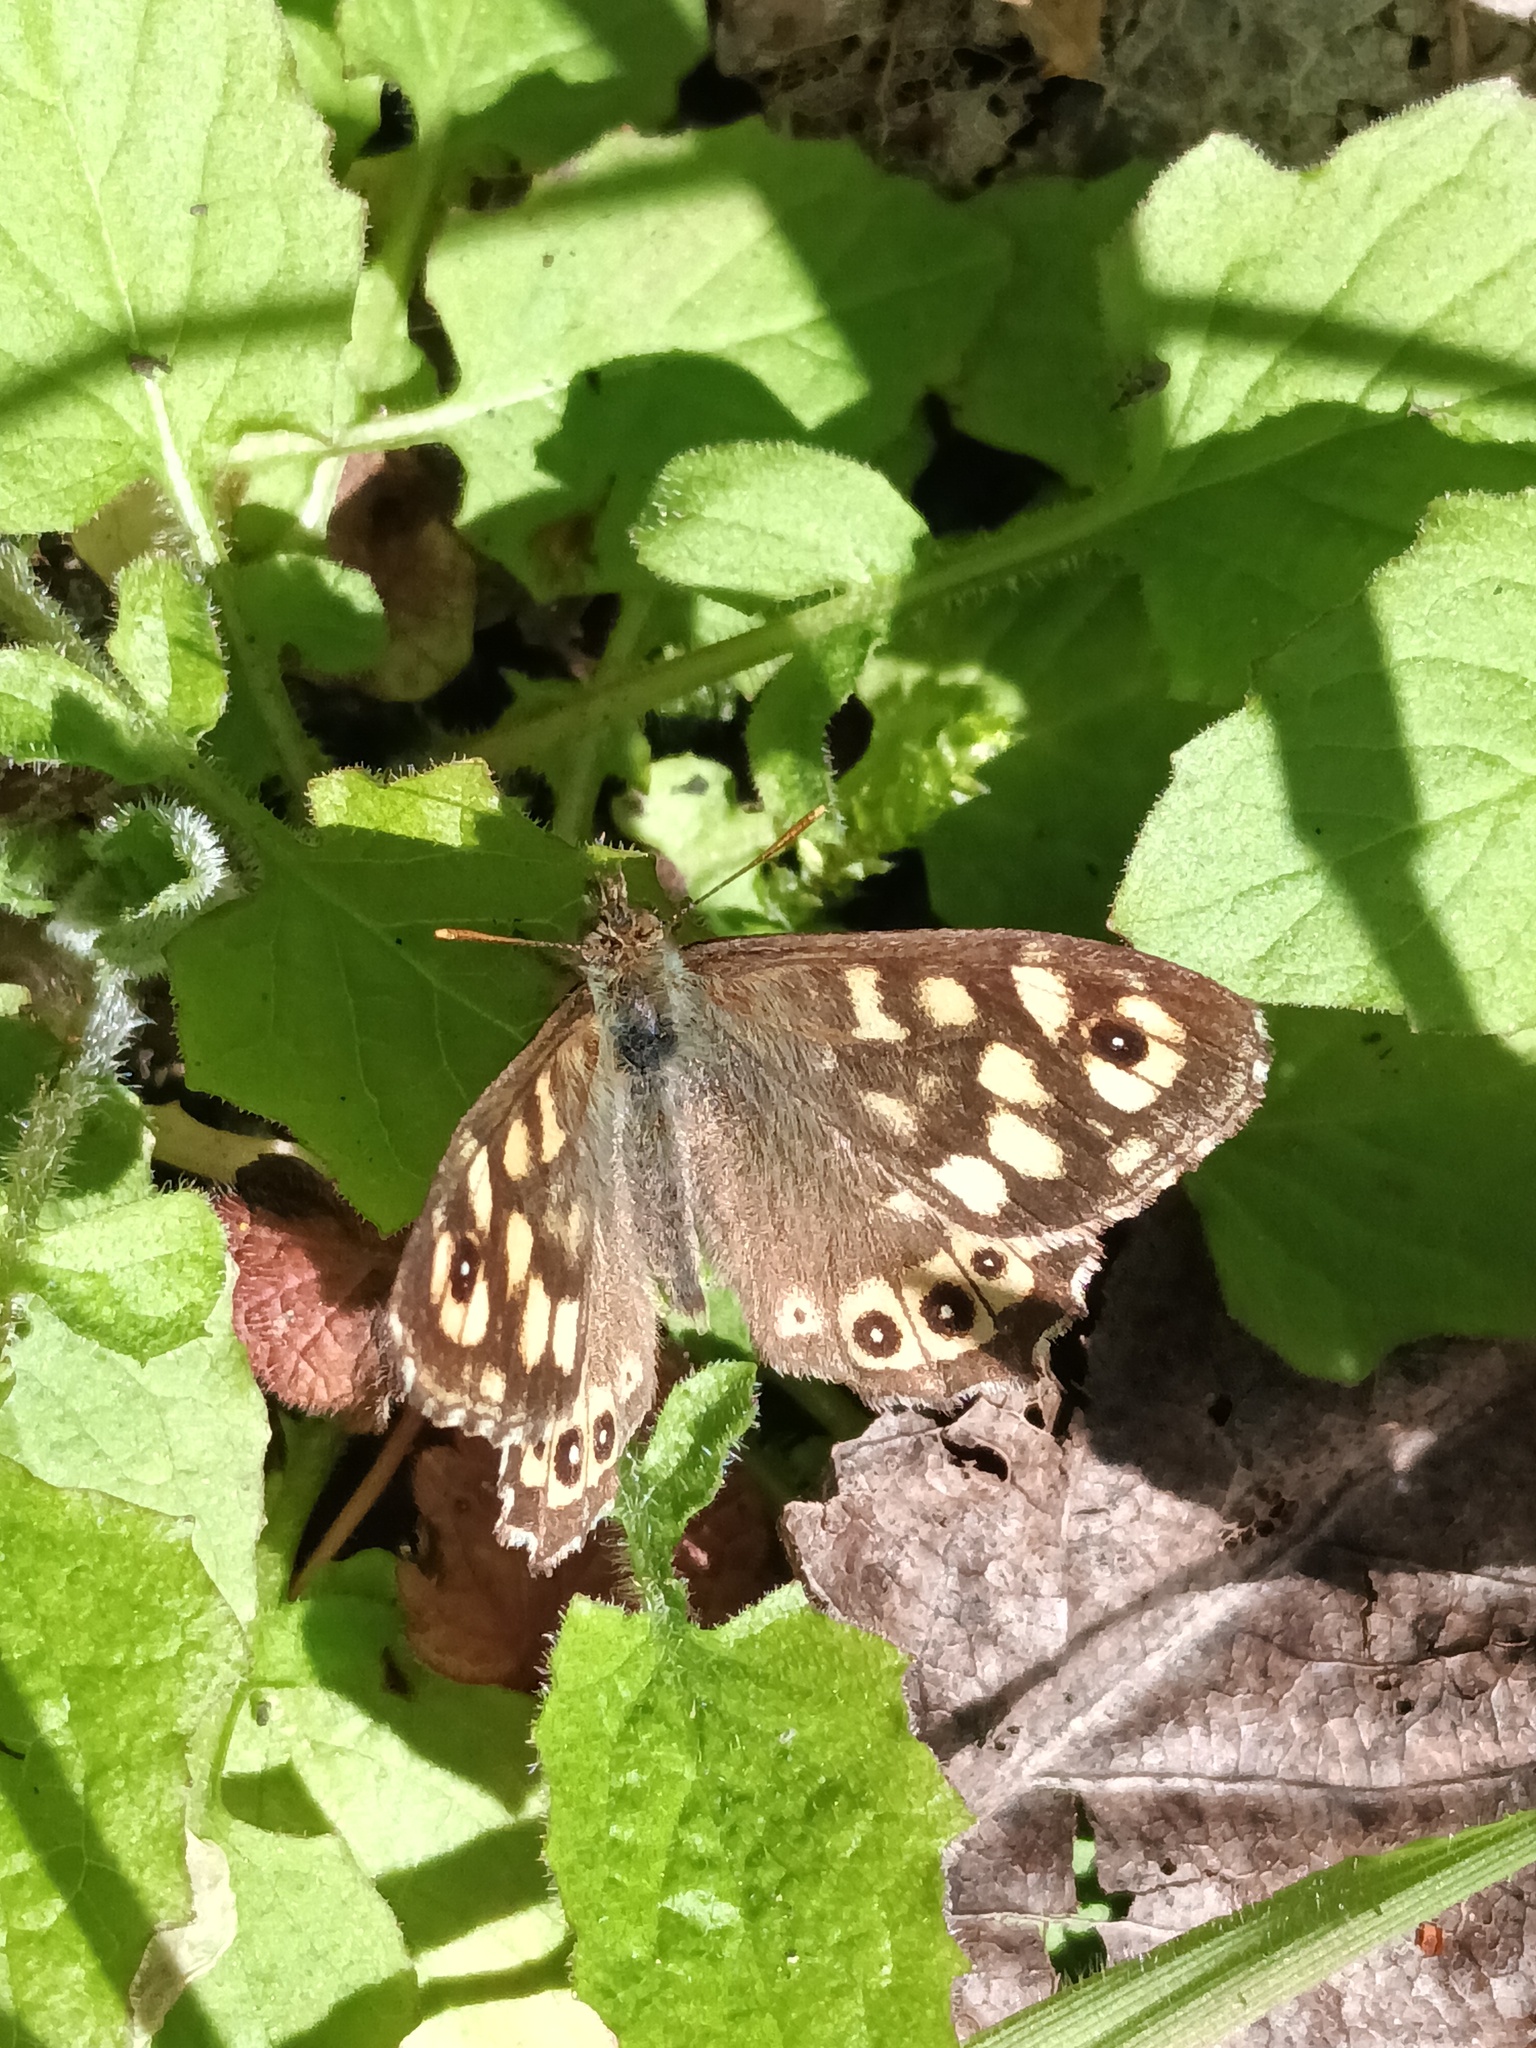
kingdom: Animalia
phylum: Arthropoda
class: Insecta
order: Lepidoptera
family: Nymphalidae
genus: Pararge
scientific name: Pararge aegeria
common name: Speckled wood
